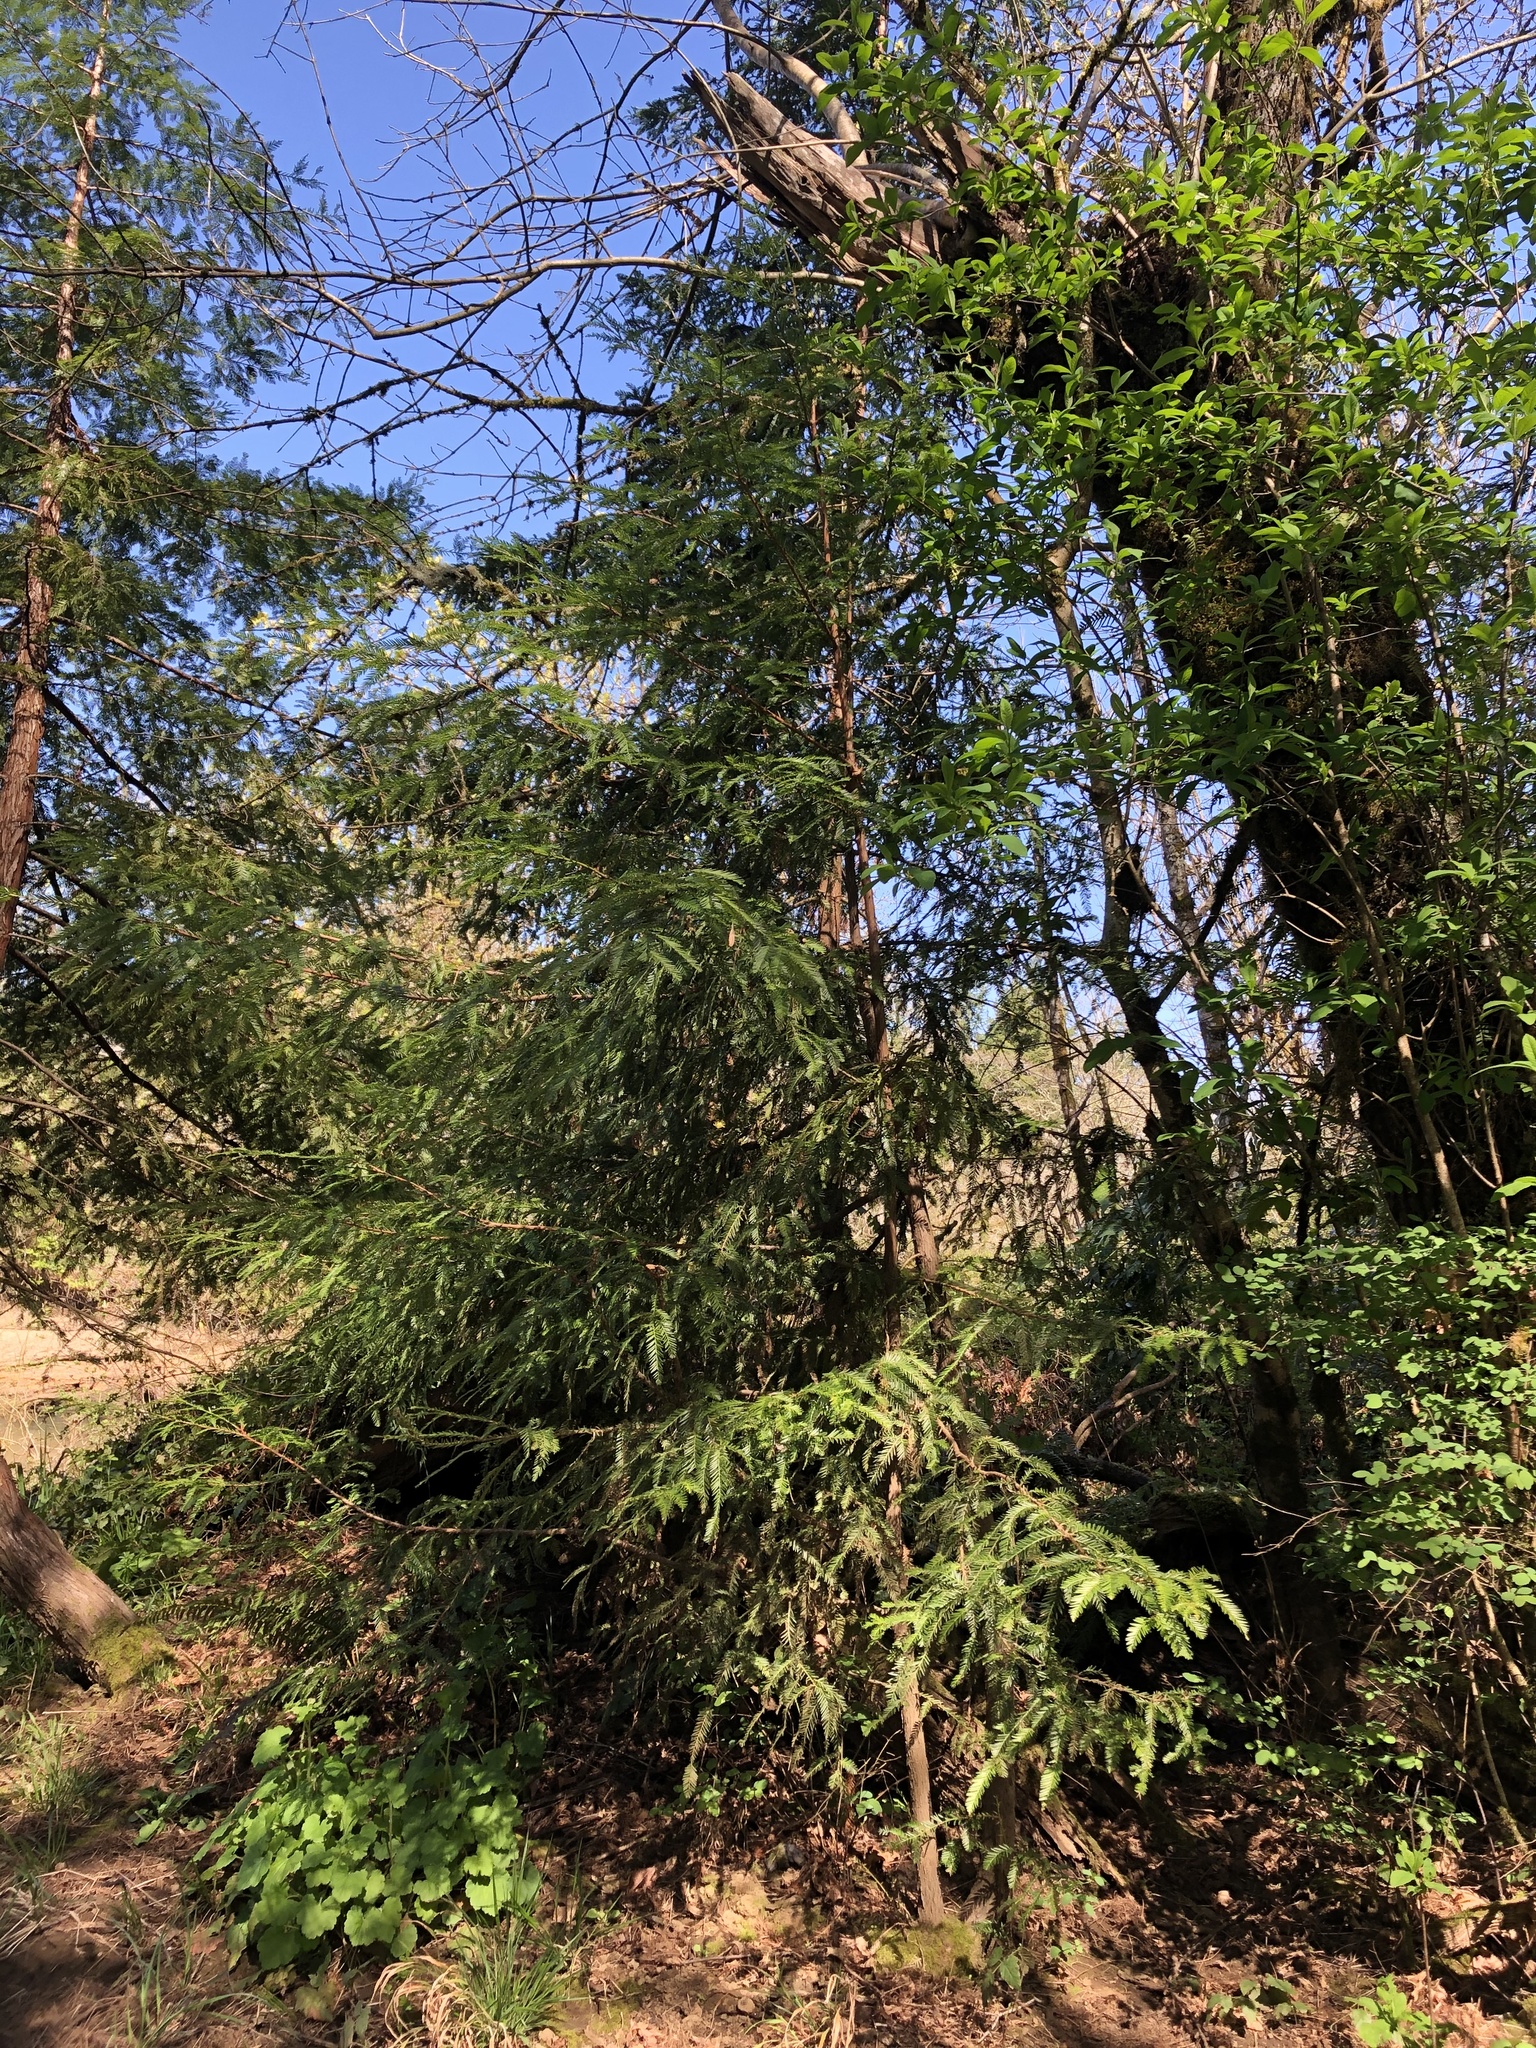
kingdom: Plantae
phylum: Tracheophyta
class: Pinopsida
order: Pinales
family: Cupressaceae
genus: Sequoia
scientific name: Sequoia sempervirens
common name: Coast redwood
